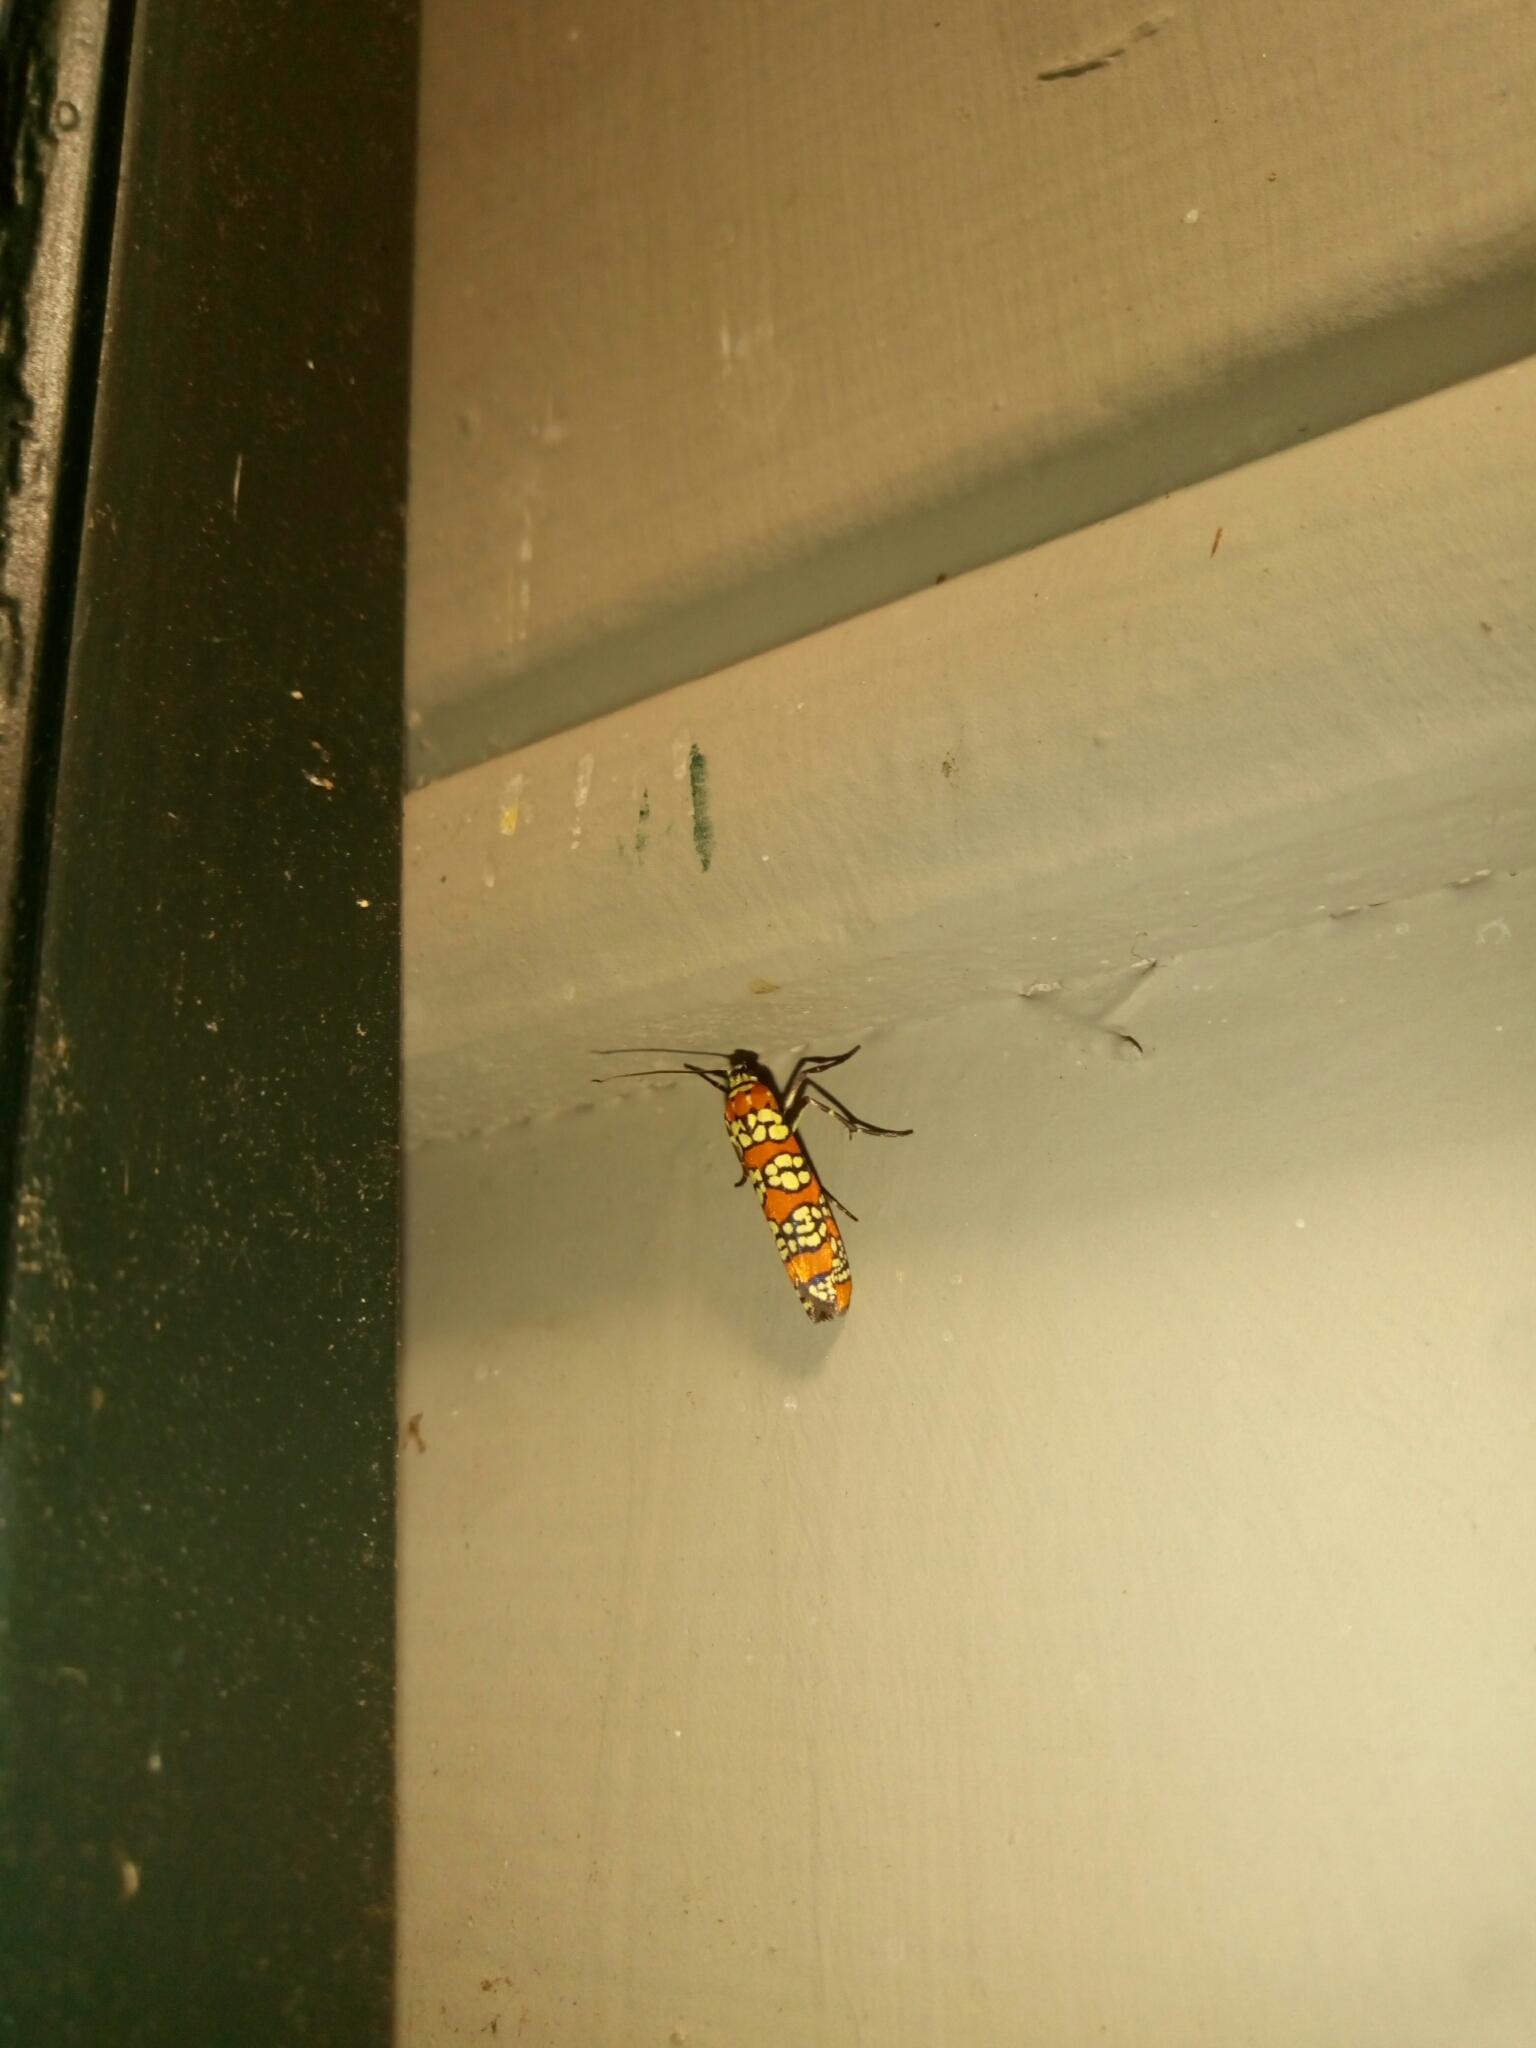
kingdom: Animalia
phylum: Arthropoda
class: Insecta
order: Lepidoptera
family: Attevidae
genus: Atteva
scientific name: Atteva punctella
